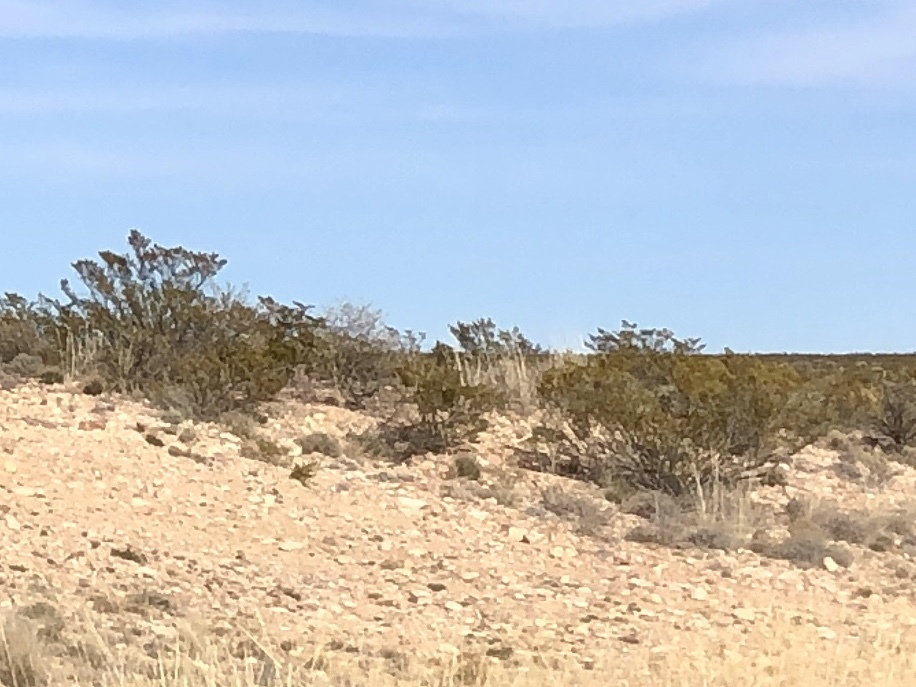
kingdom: Plantae
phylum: Tracheophyta
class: Magnoliopsida
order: Zygophyllales
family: Zygophyllaceae
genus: Larrea
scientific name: Larrea tridentata
